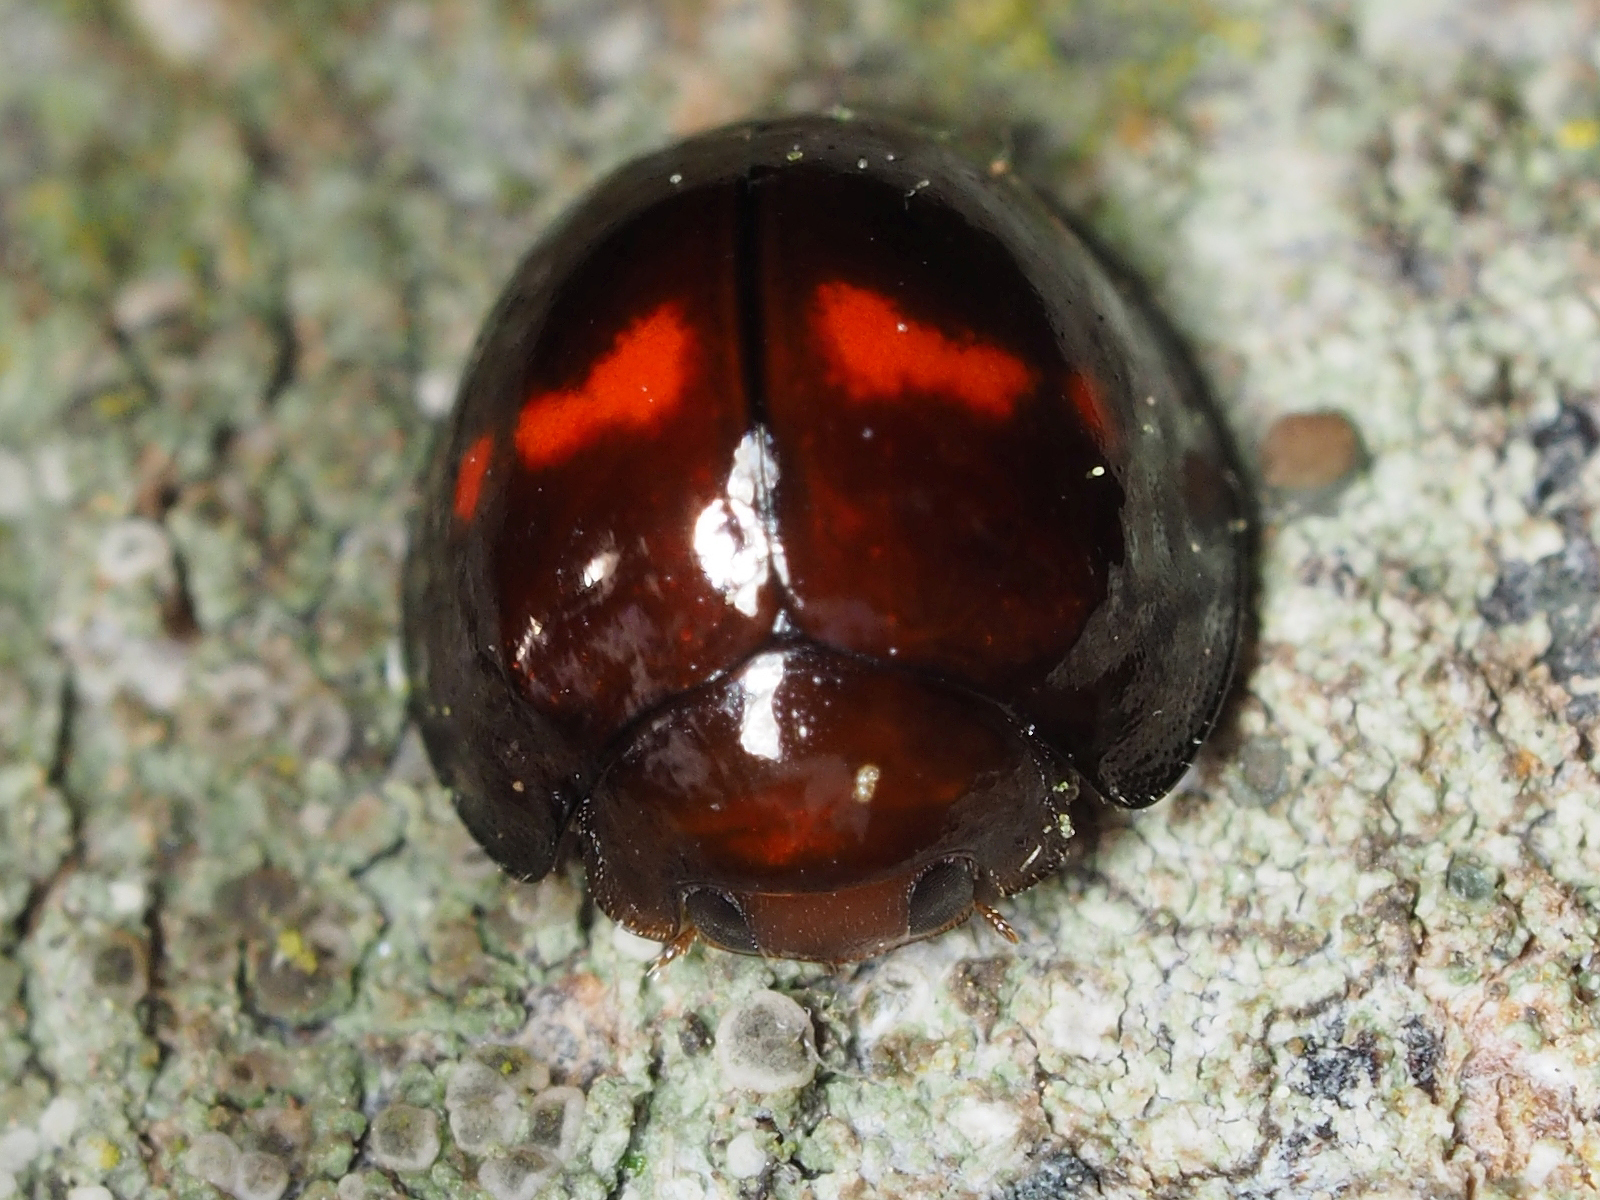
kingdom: Animalia
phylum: Arthropoda
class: Insecta
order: Coleoptera
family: Coccinellidae
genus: Chilocorus
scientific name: Chilocorus bipustulatus
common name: Heather ladybird
